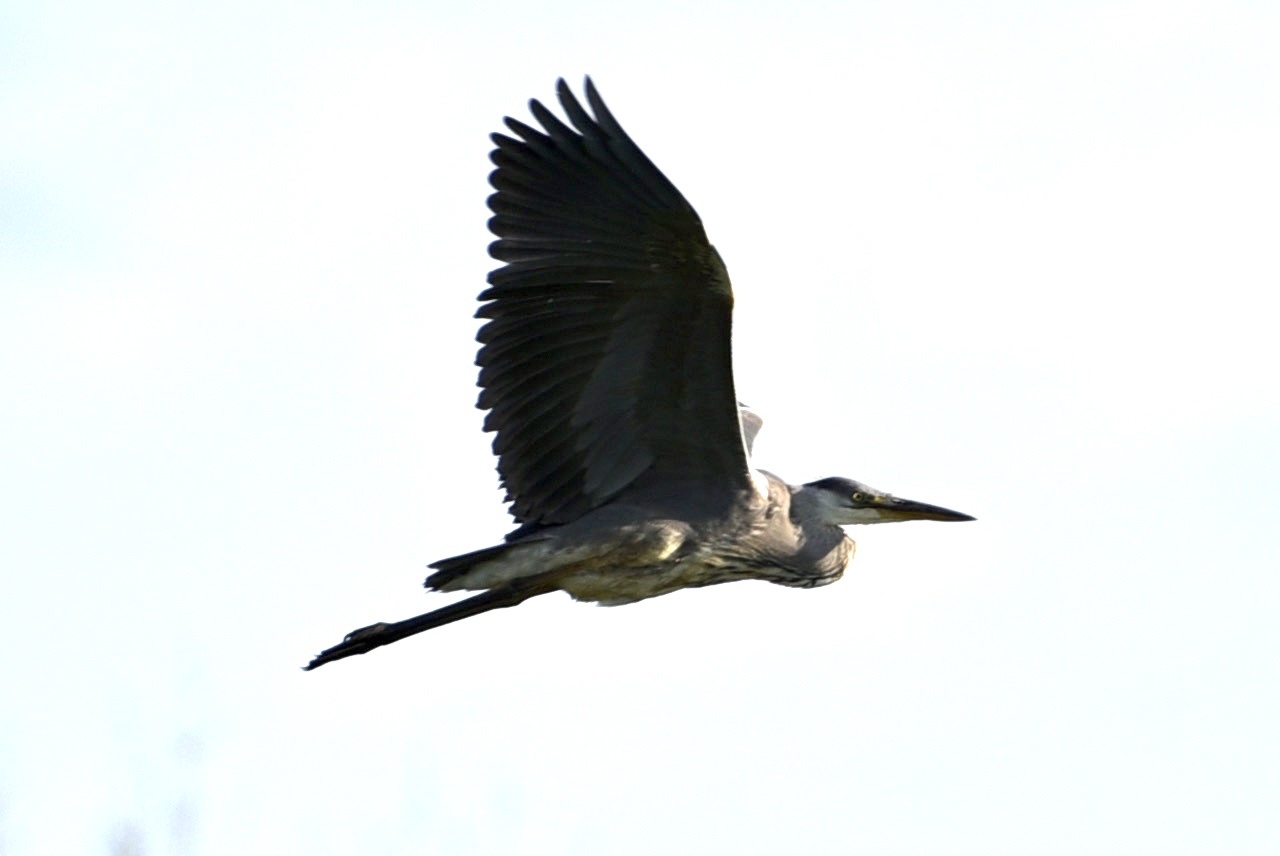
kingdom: Animalia
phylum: Chordata
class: Aves
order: Pelecaniformes
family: Ardeidae
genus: Ardea
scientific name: Ardea cinerea
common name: Grey heron
